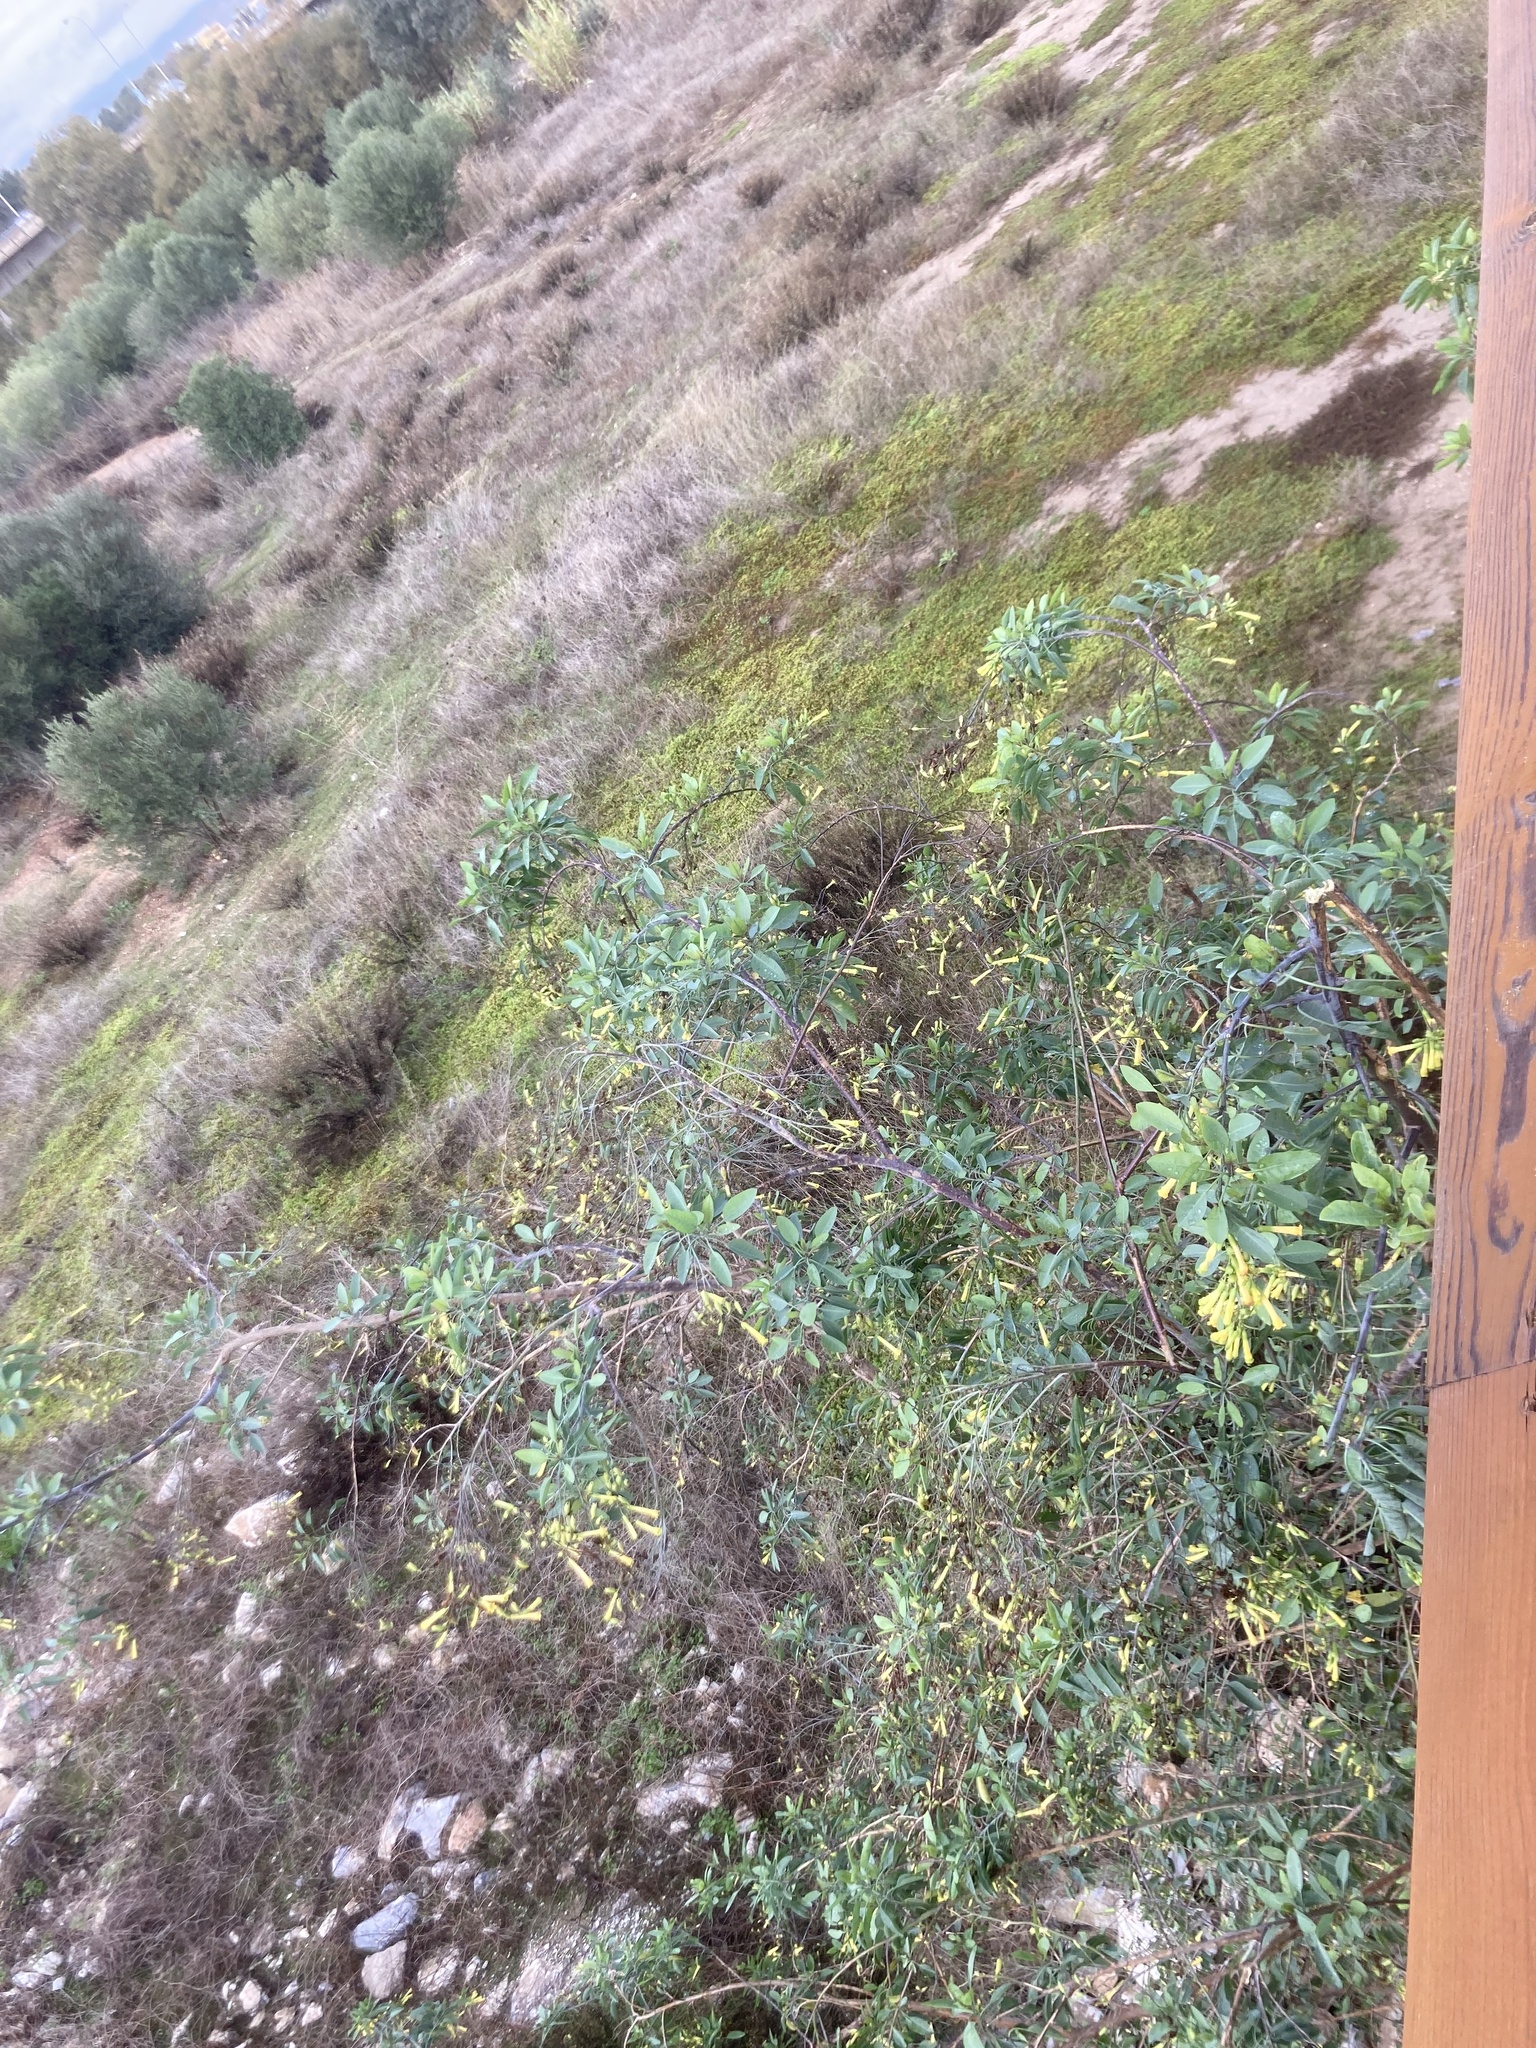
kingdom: Plantae
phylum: Tracheophyta
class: Magnoliopsida
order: Solanales
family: Solanaceae
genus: Nicotiana
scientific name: Nicotiana glauca
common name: Tree tobacco
